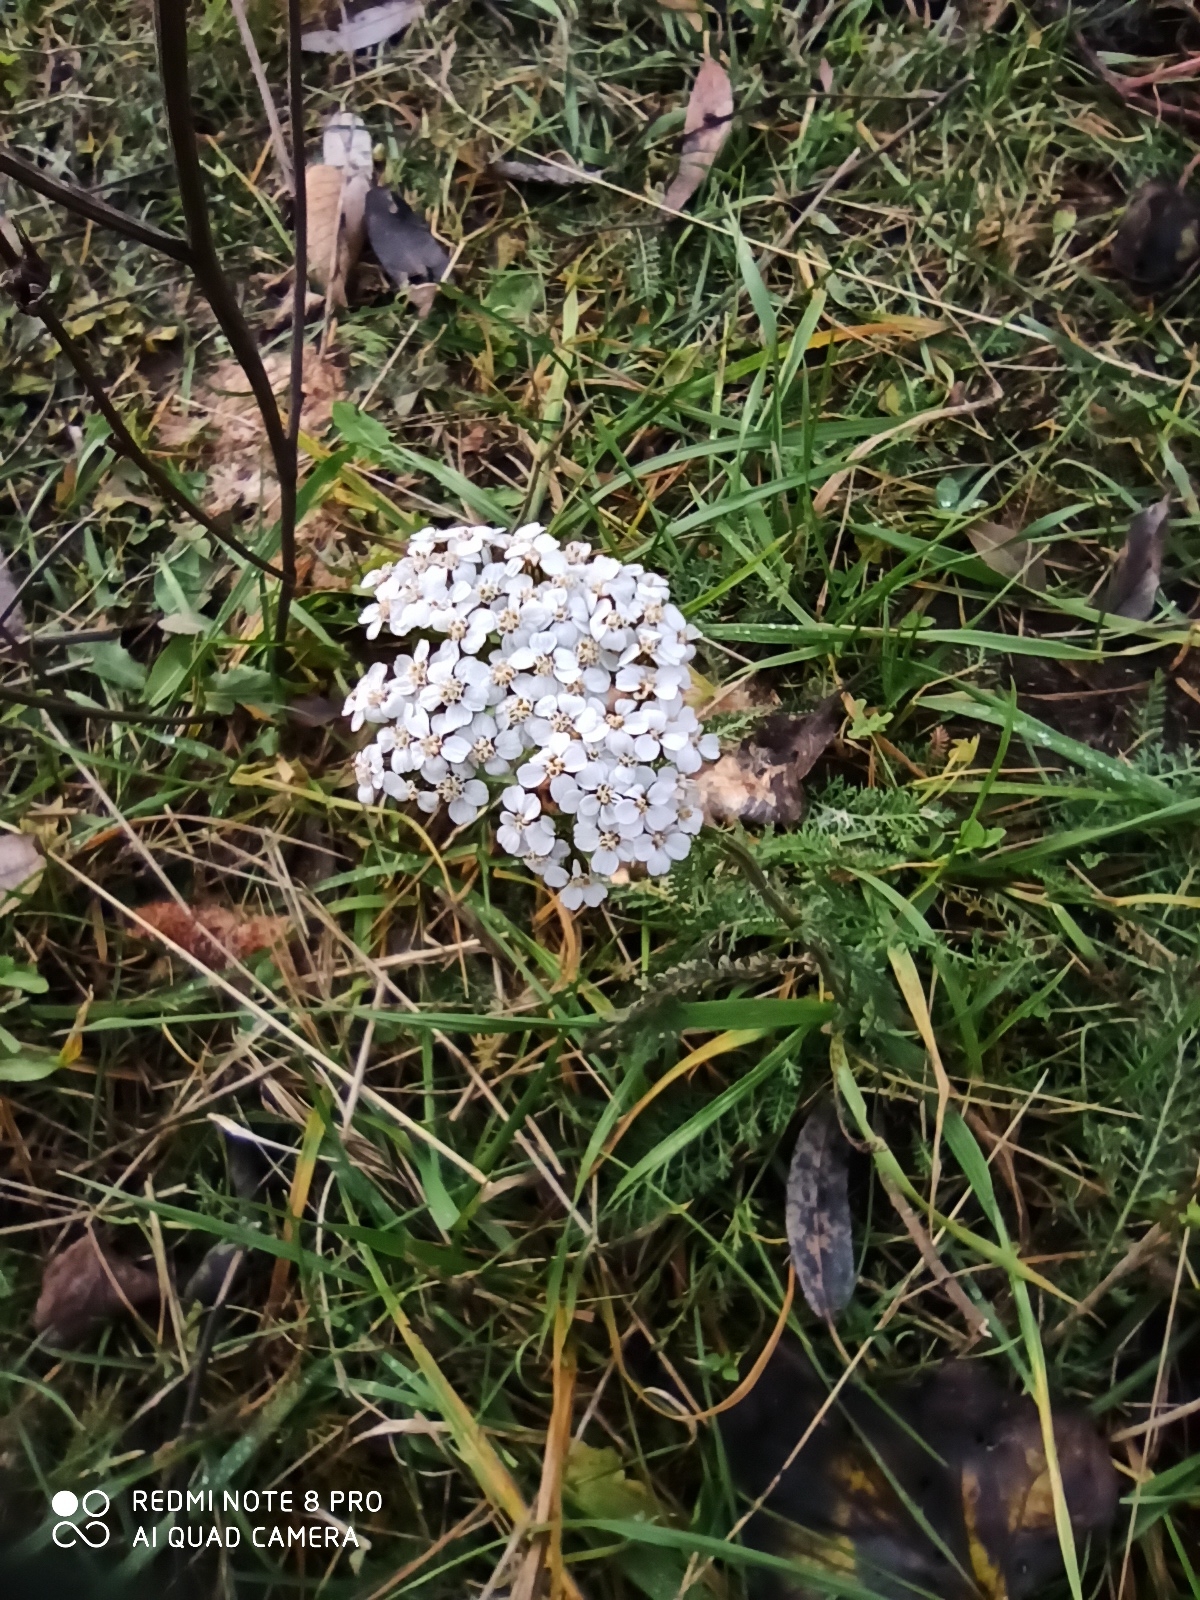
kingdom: Plantae
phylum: Tracheophyta
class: Magnoliopsida
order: Asterales
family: Asteraceae
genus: Achillea
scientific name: Achillea millefolium
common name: Yarrow
